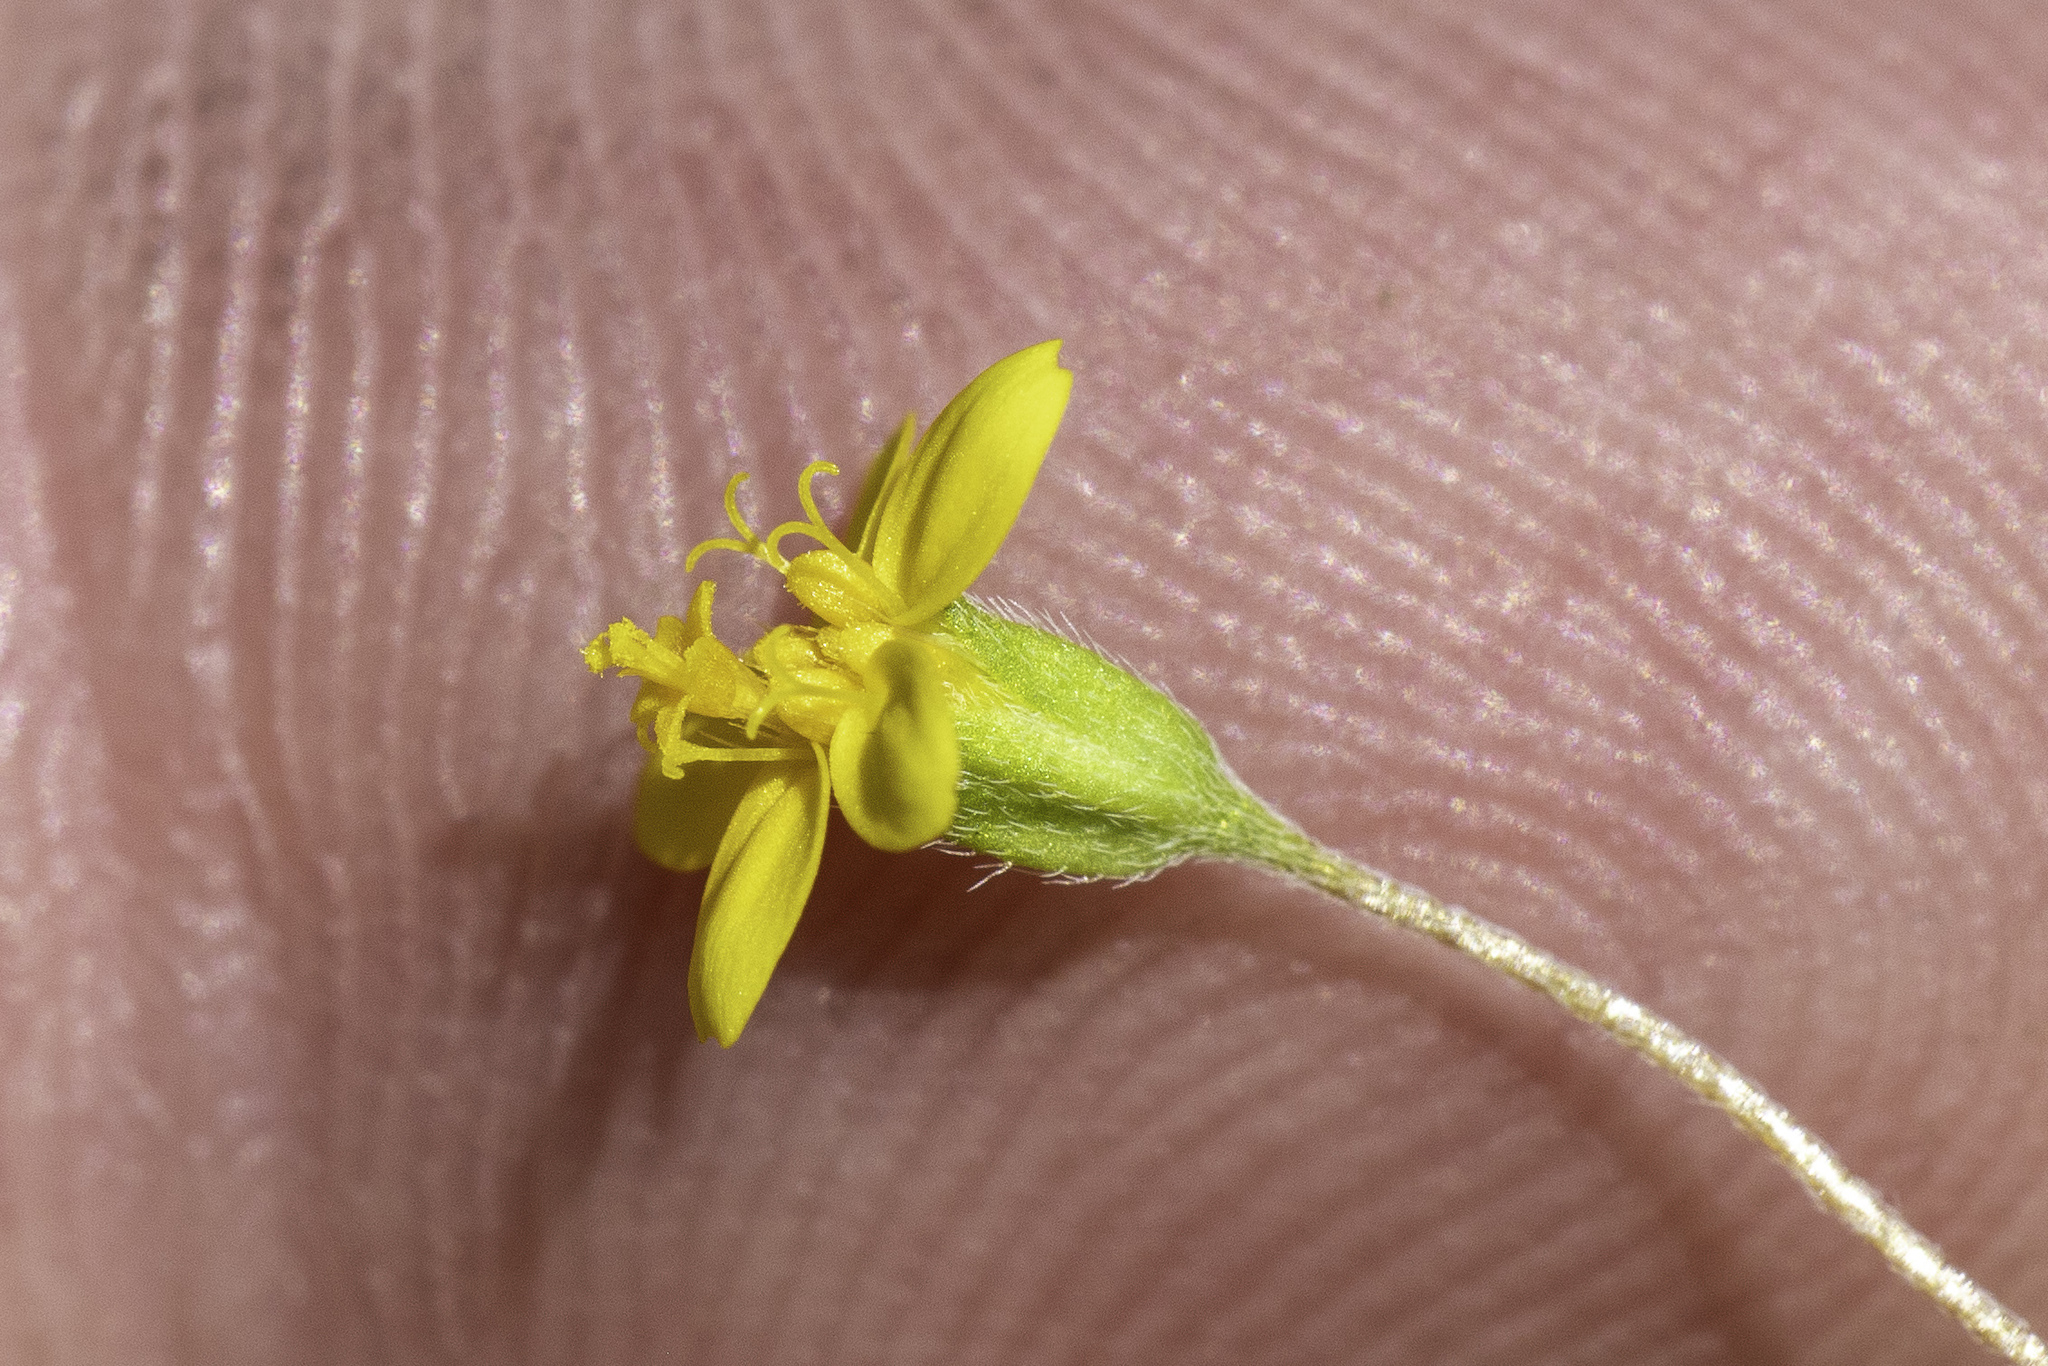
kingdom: Plantae
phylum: Tracheophyta
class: Magnoliopsida
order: Asterales
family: Asteraceae
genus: Lasthenia
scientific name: Lasthenia gracilis
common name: Common goldfields
